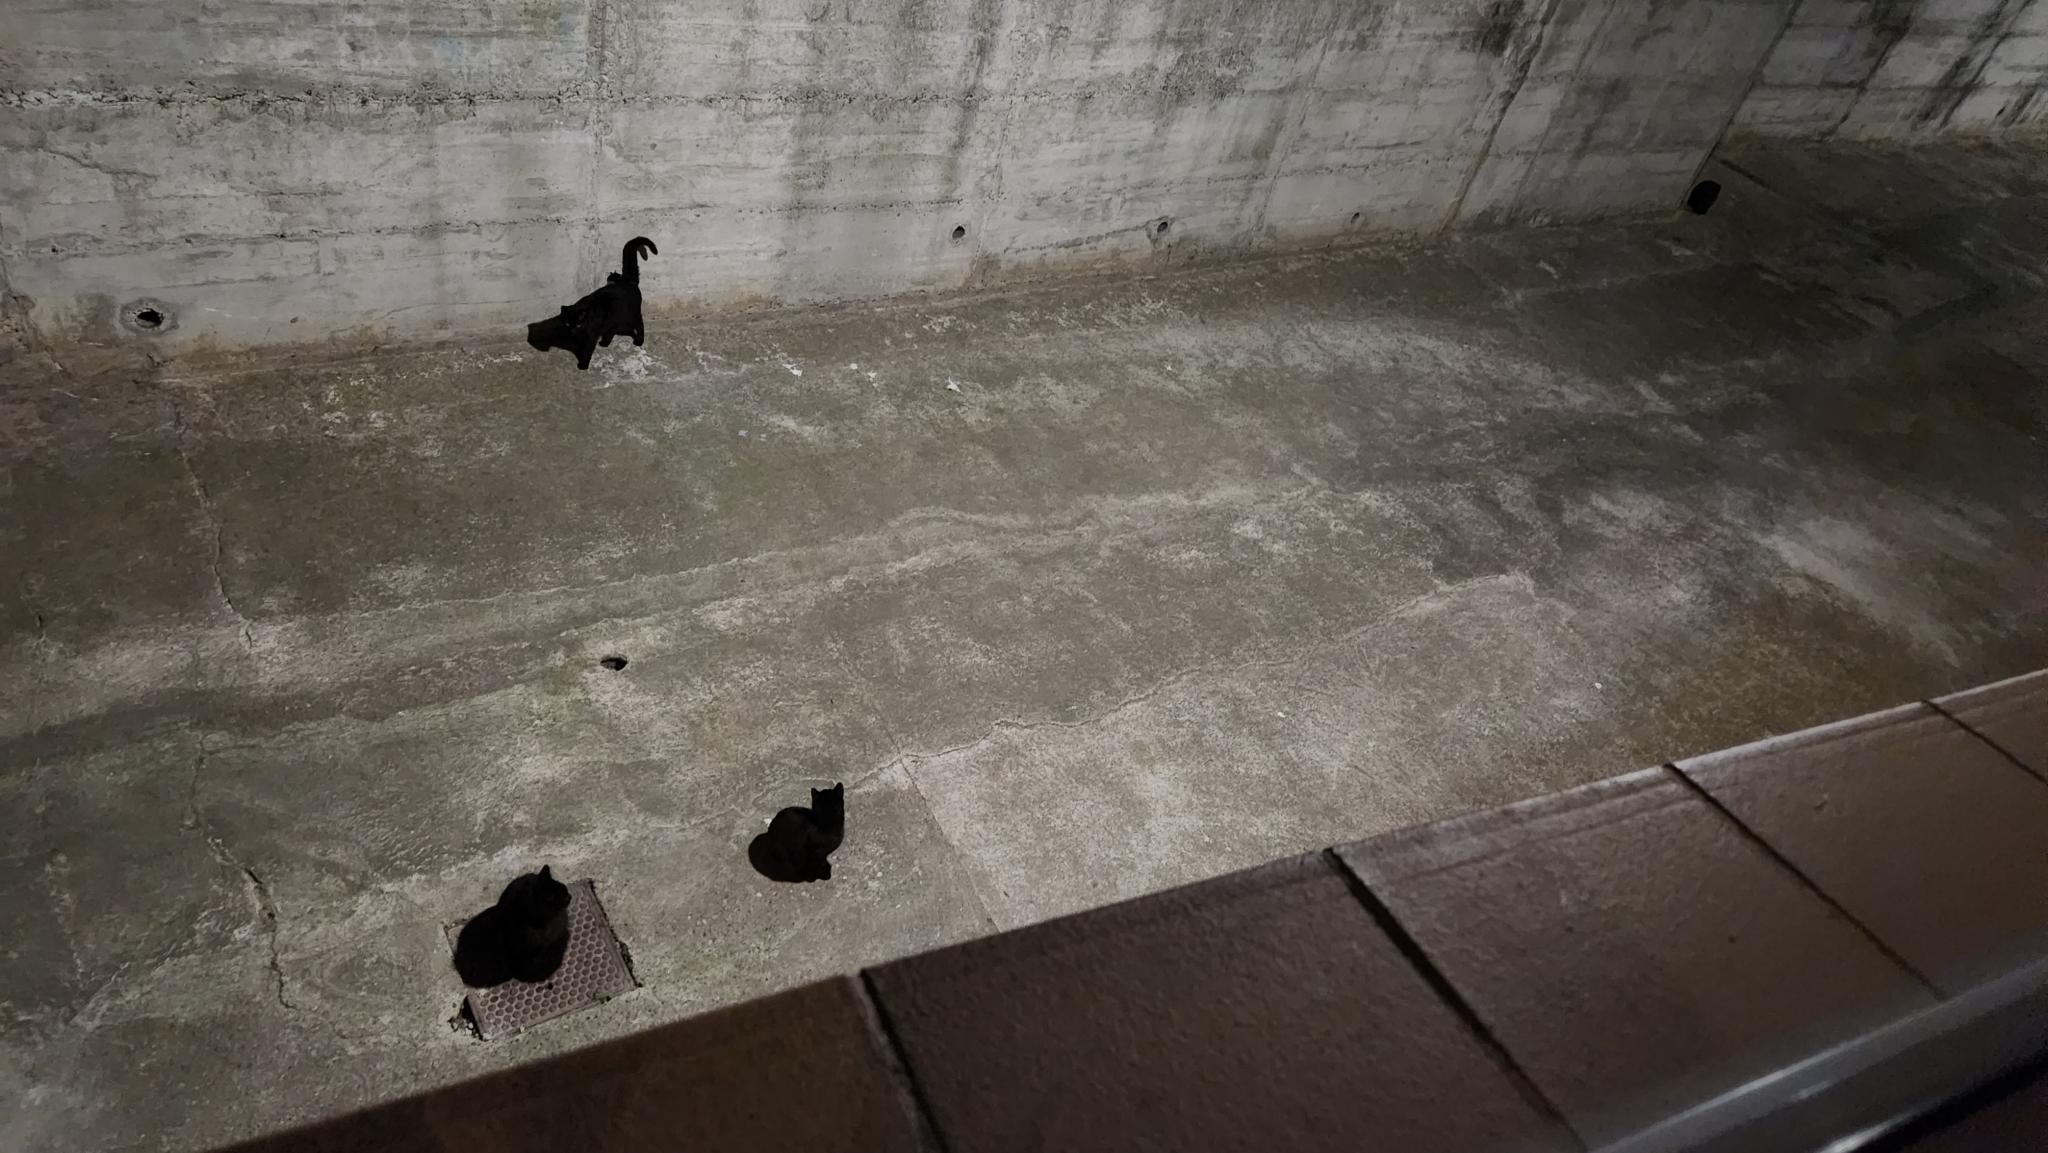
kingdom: Animalia
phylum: Chordata
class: Mammalia
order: Carnivora
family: Felidae
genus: Felis
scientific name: Felis catus
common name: Domestic cat
